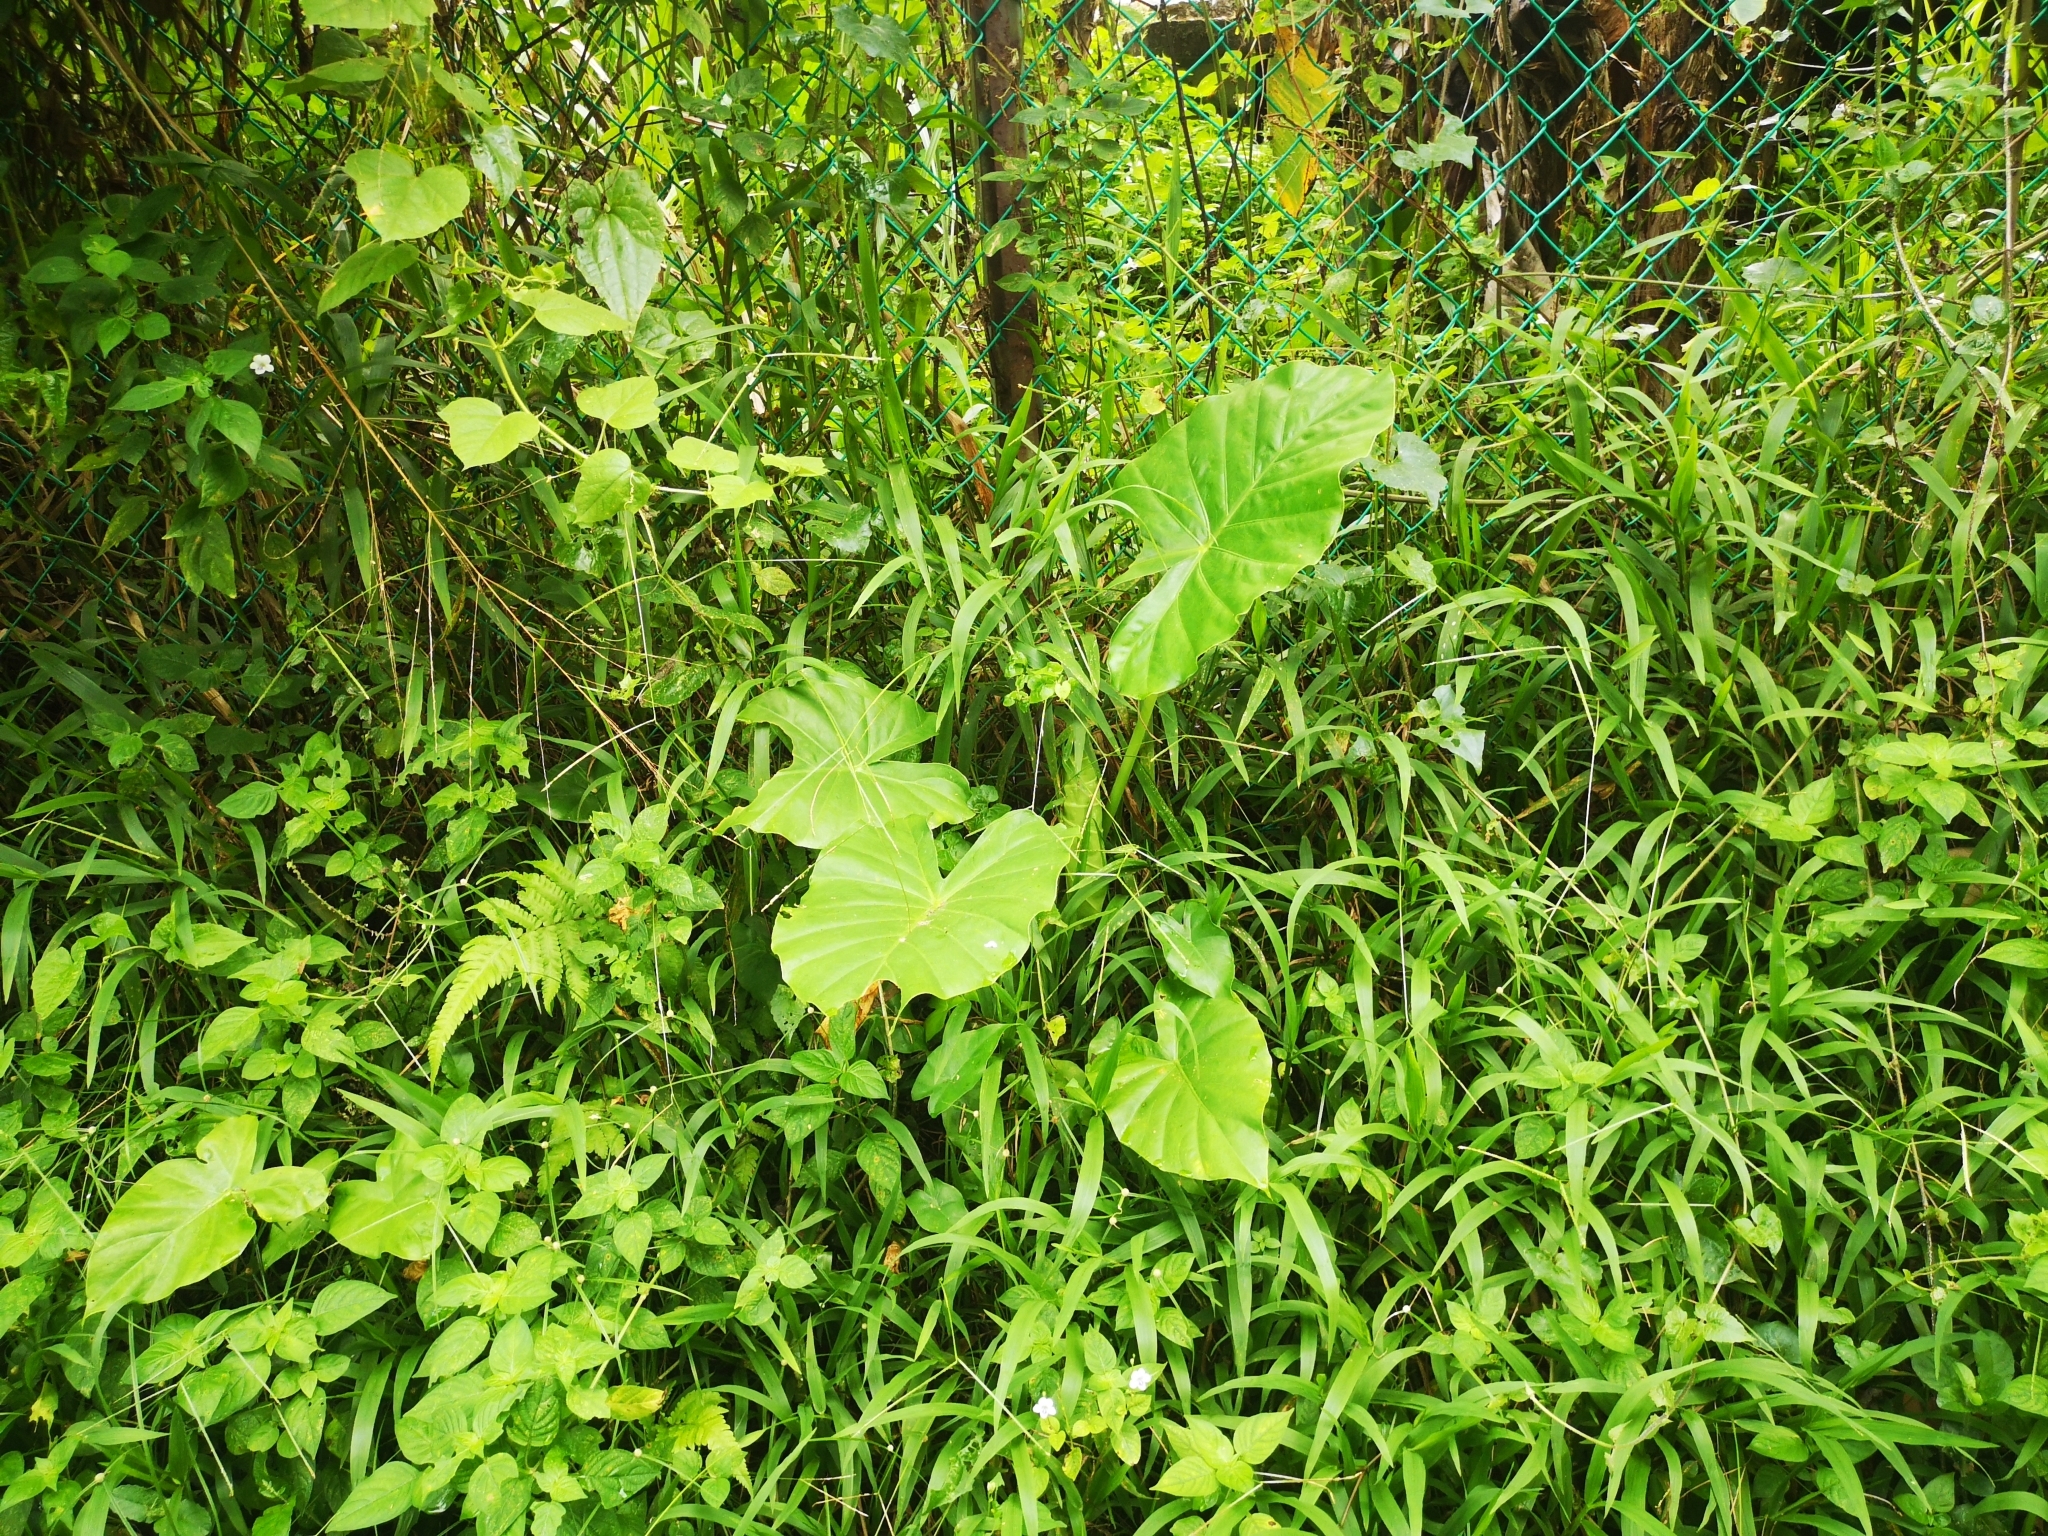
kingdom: Plantae
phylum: Tracheophyta
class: Liliopsida
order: Alismatales
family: Araceae
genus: Alocasia
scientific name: Alocasia odora
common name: Asian taro
